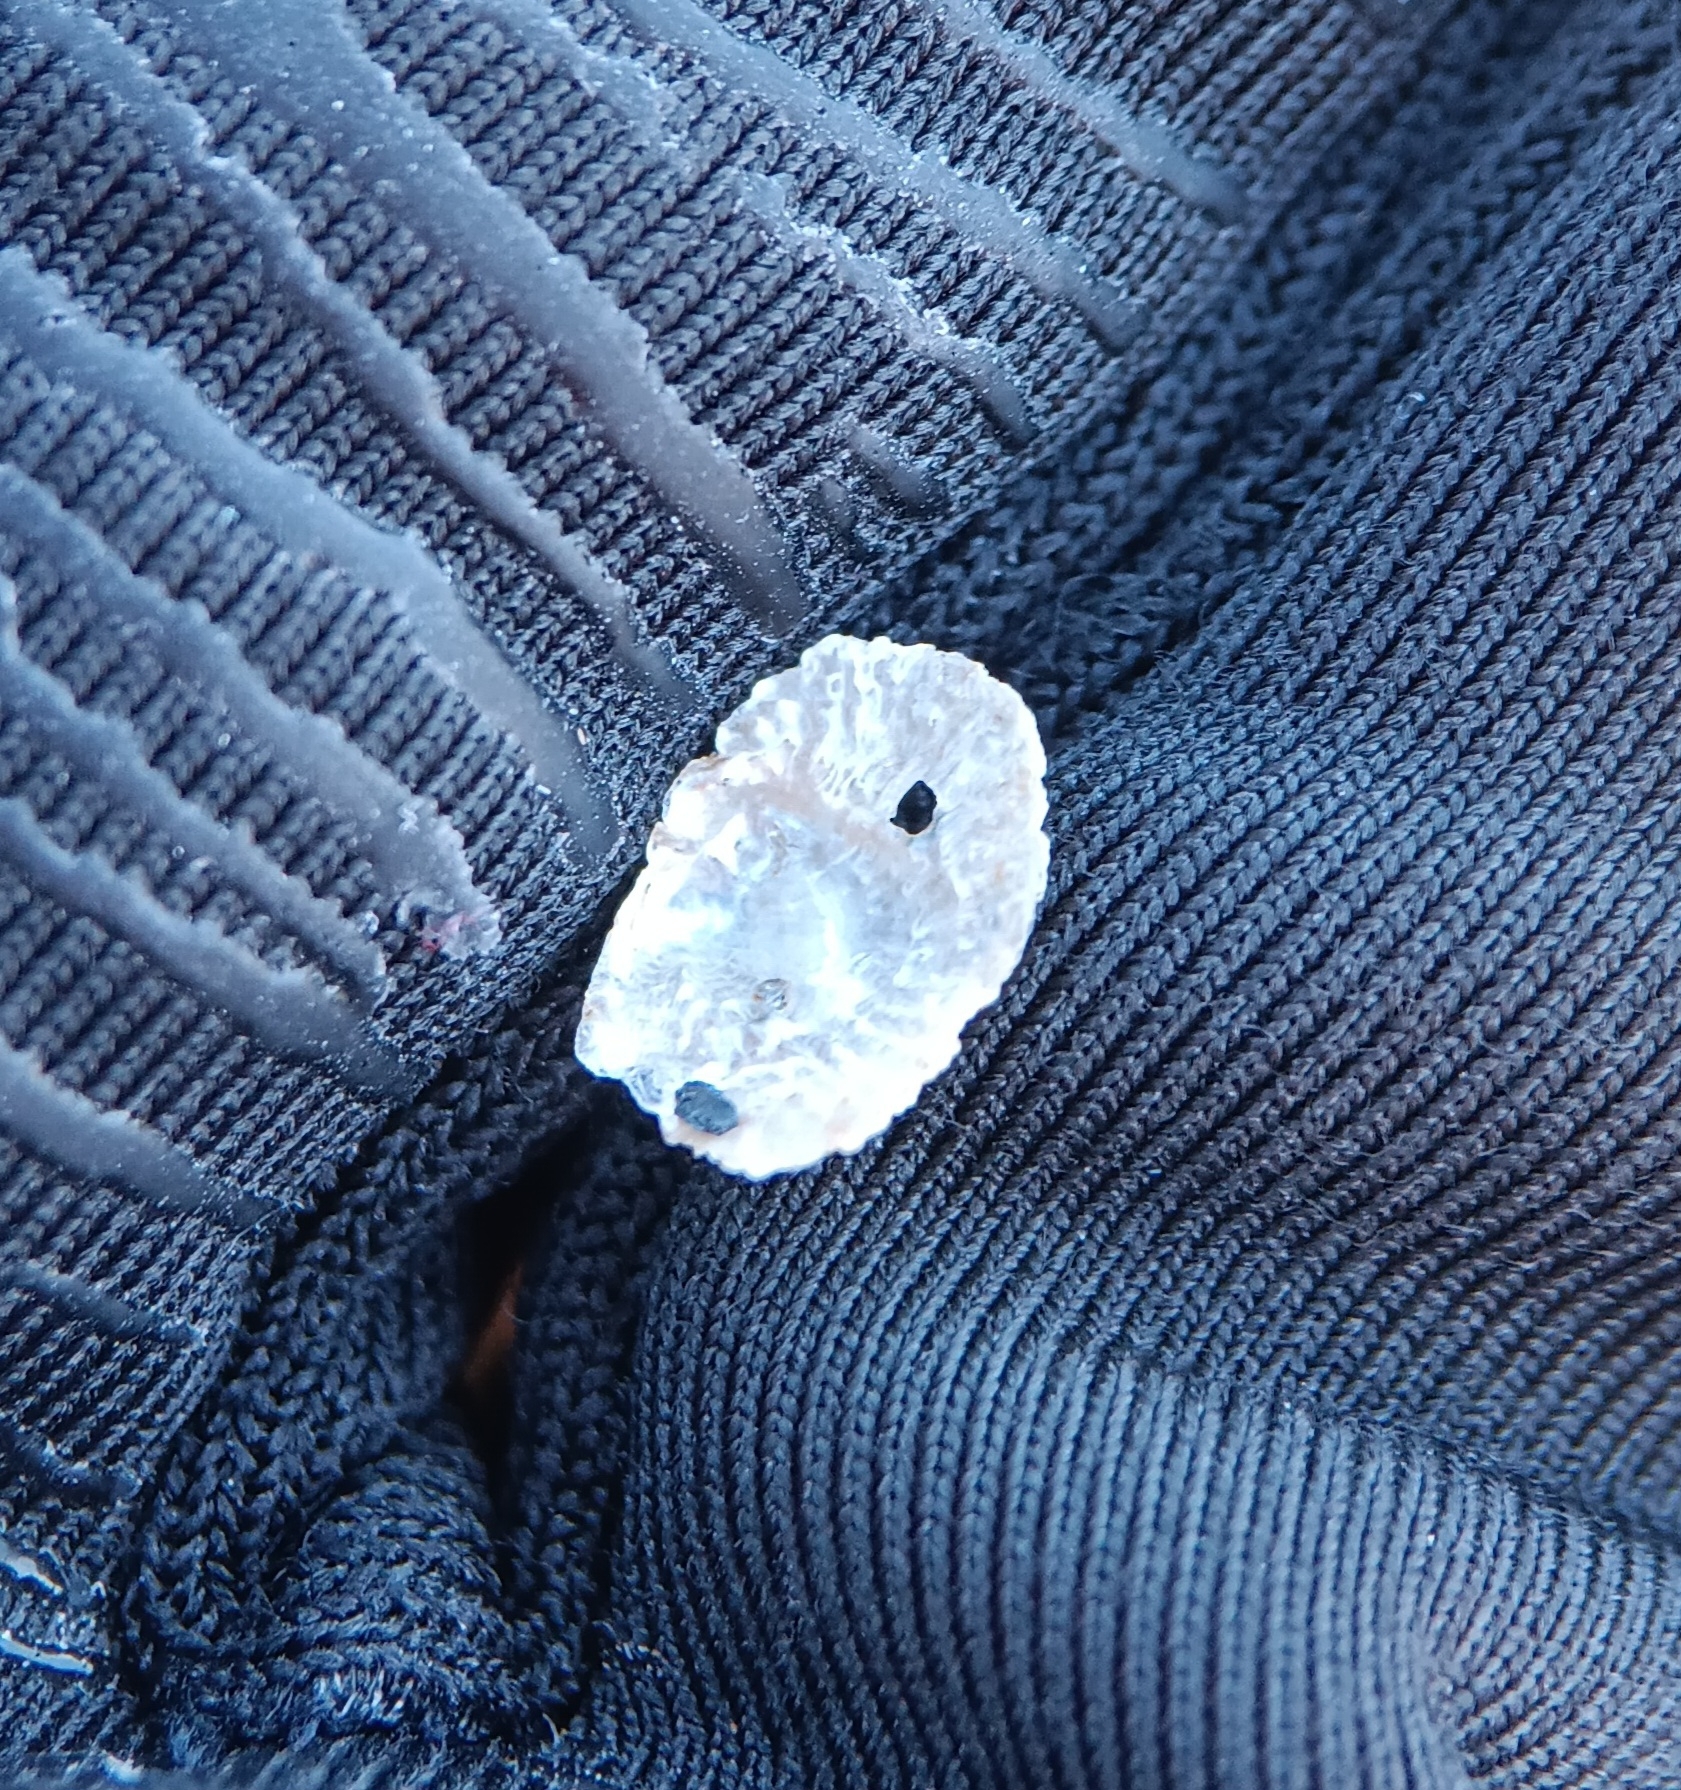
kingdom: Animalia
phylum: Mollusca
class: Bivalvia
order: Pectinida
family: Anomiidae
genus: Heteranomia
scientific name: Heteranomia squamula
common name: Prickly jingle
